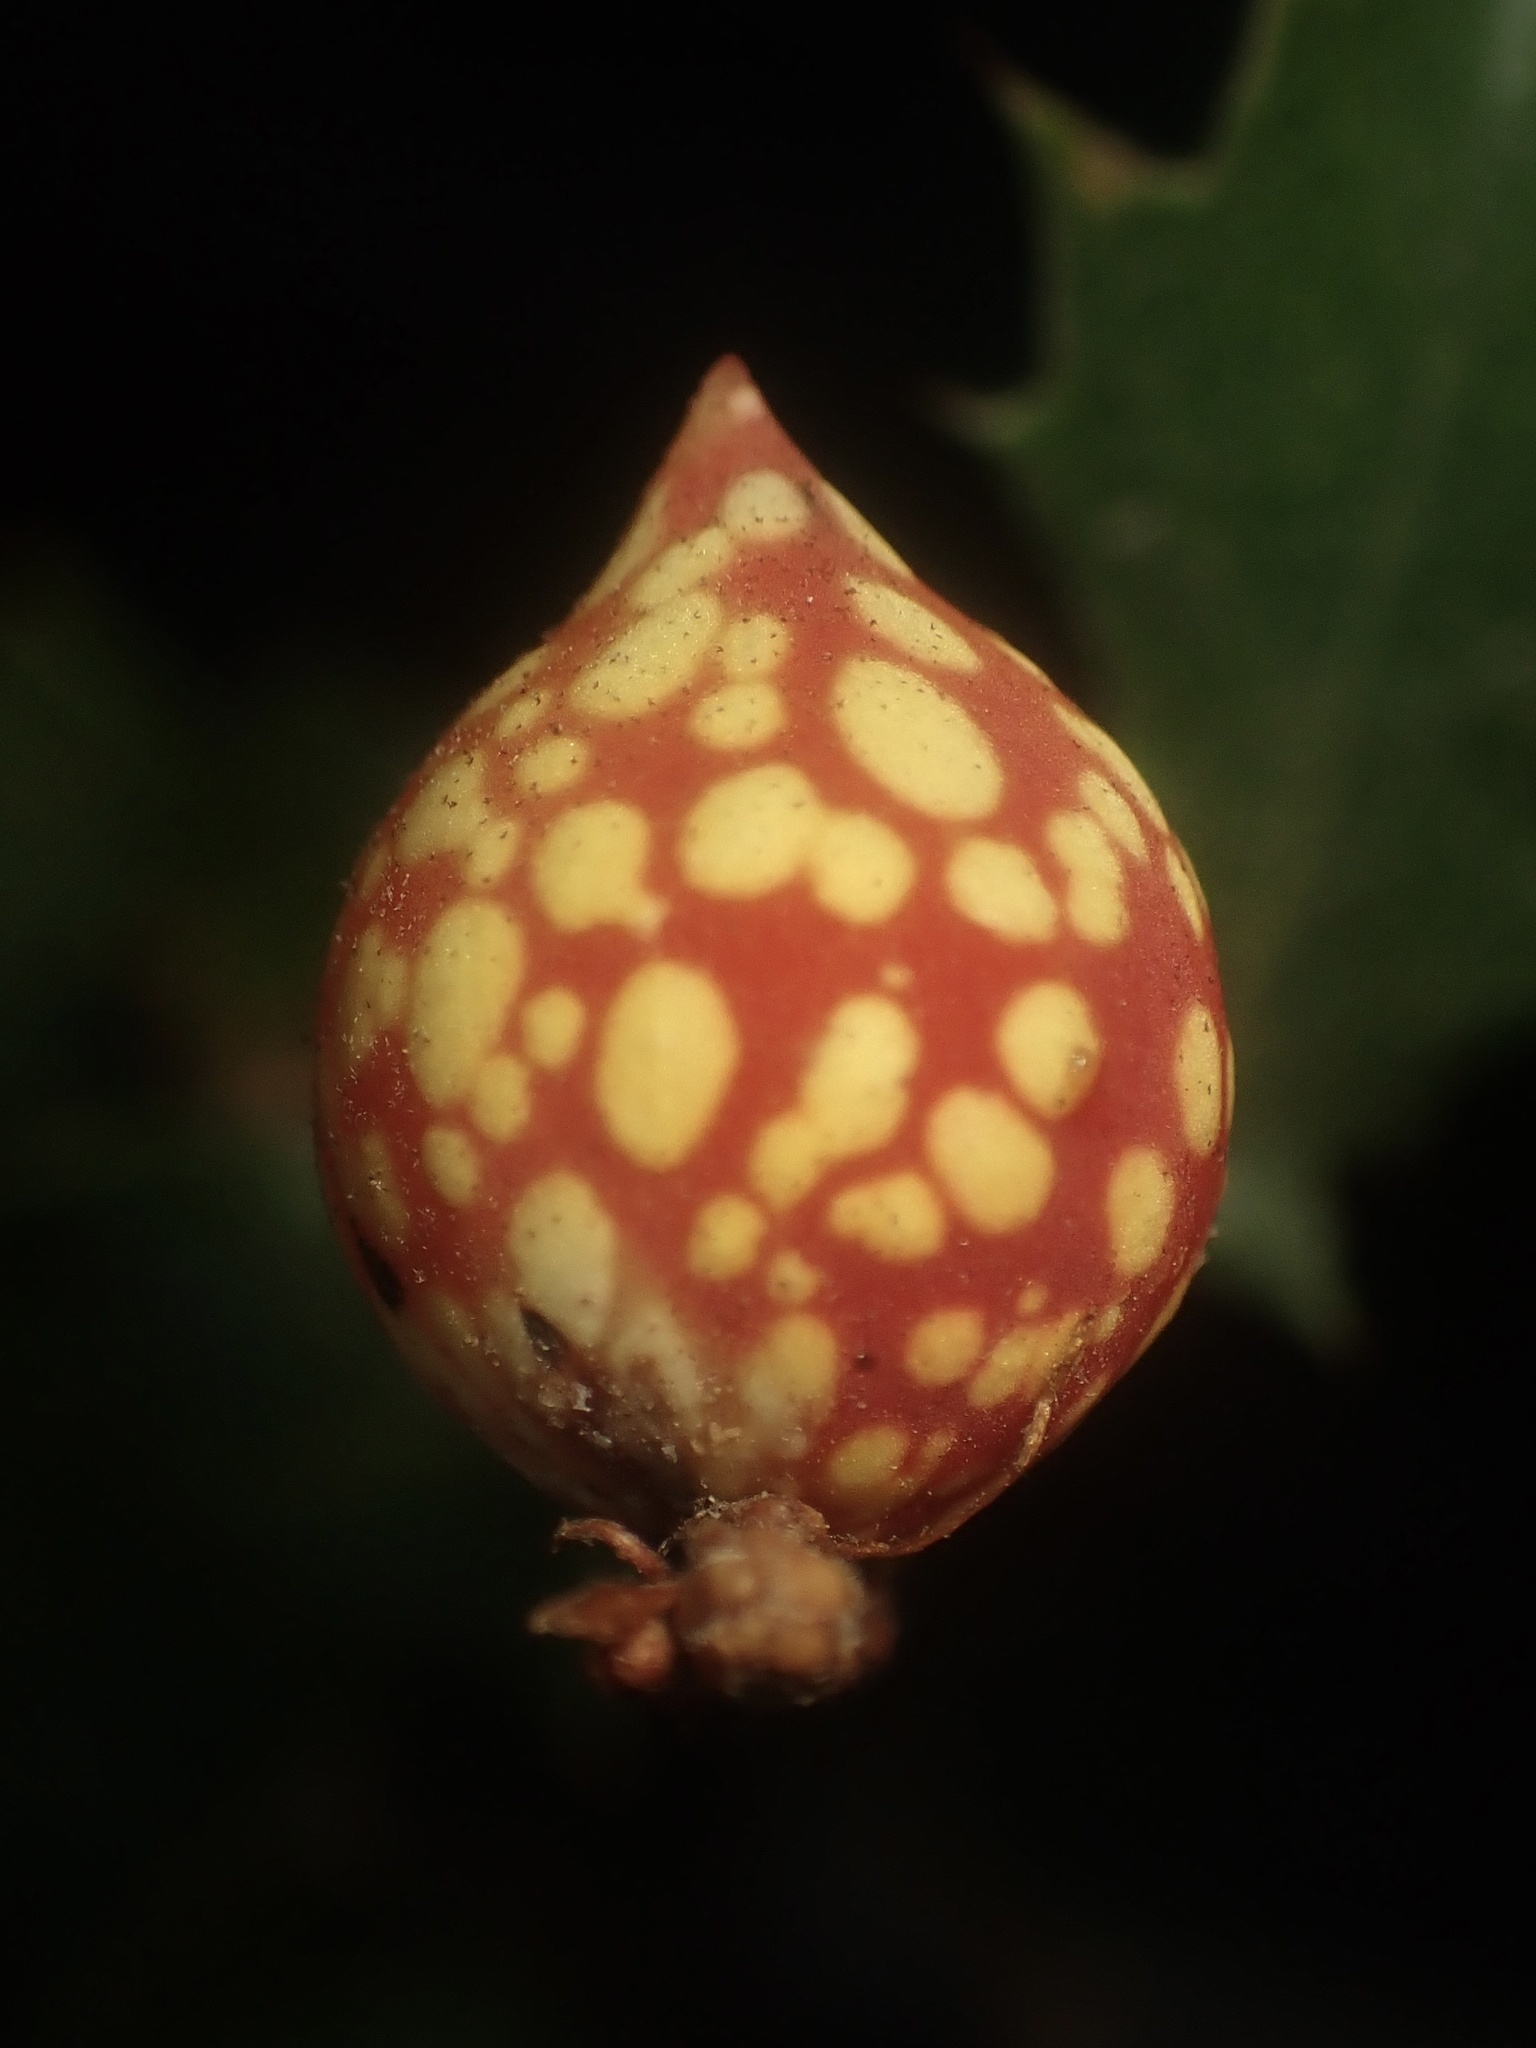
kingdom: Animalia
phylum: Arthropoda
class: Insecta
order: Hymenoptera
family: Cynipidae
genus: Burnettweldia
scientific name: Burnettweldia
